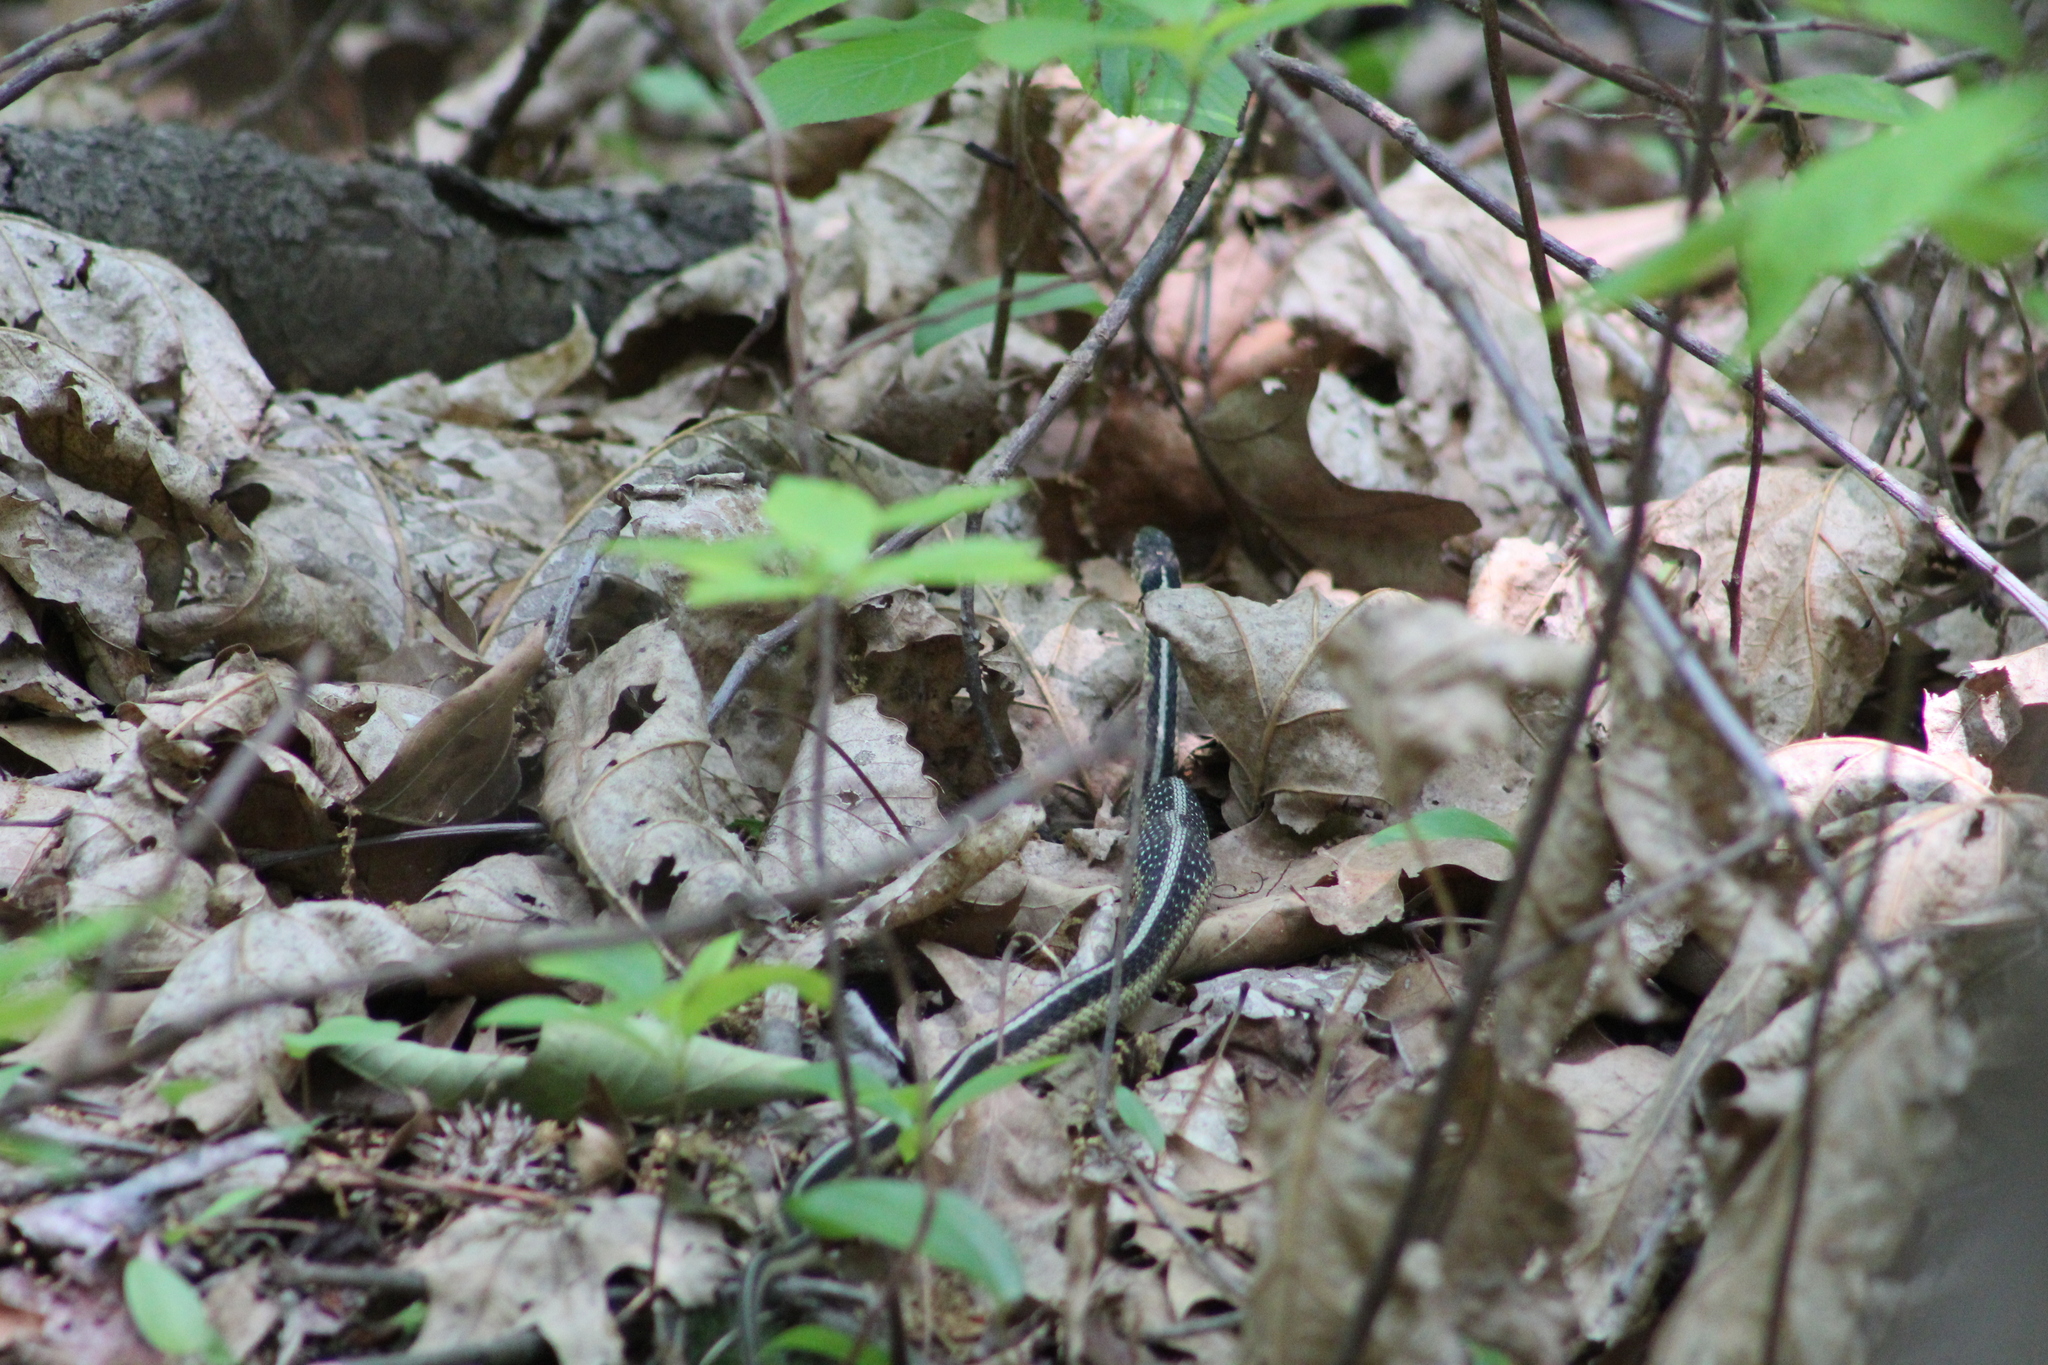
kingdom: Animalia
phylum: Chordata
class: Squamata
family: Colubridae
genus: Thamnophis
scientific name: Thamnophis sirtalis
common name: Common garter snake
